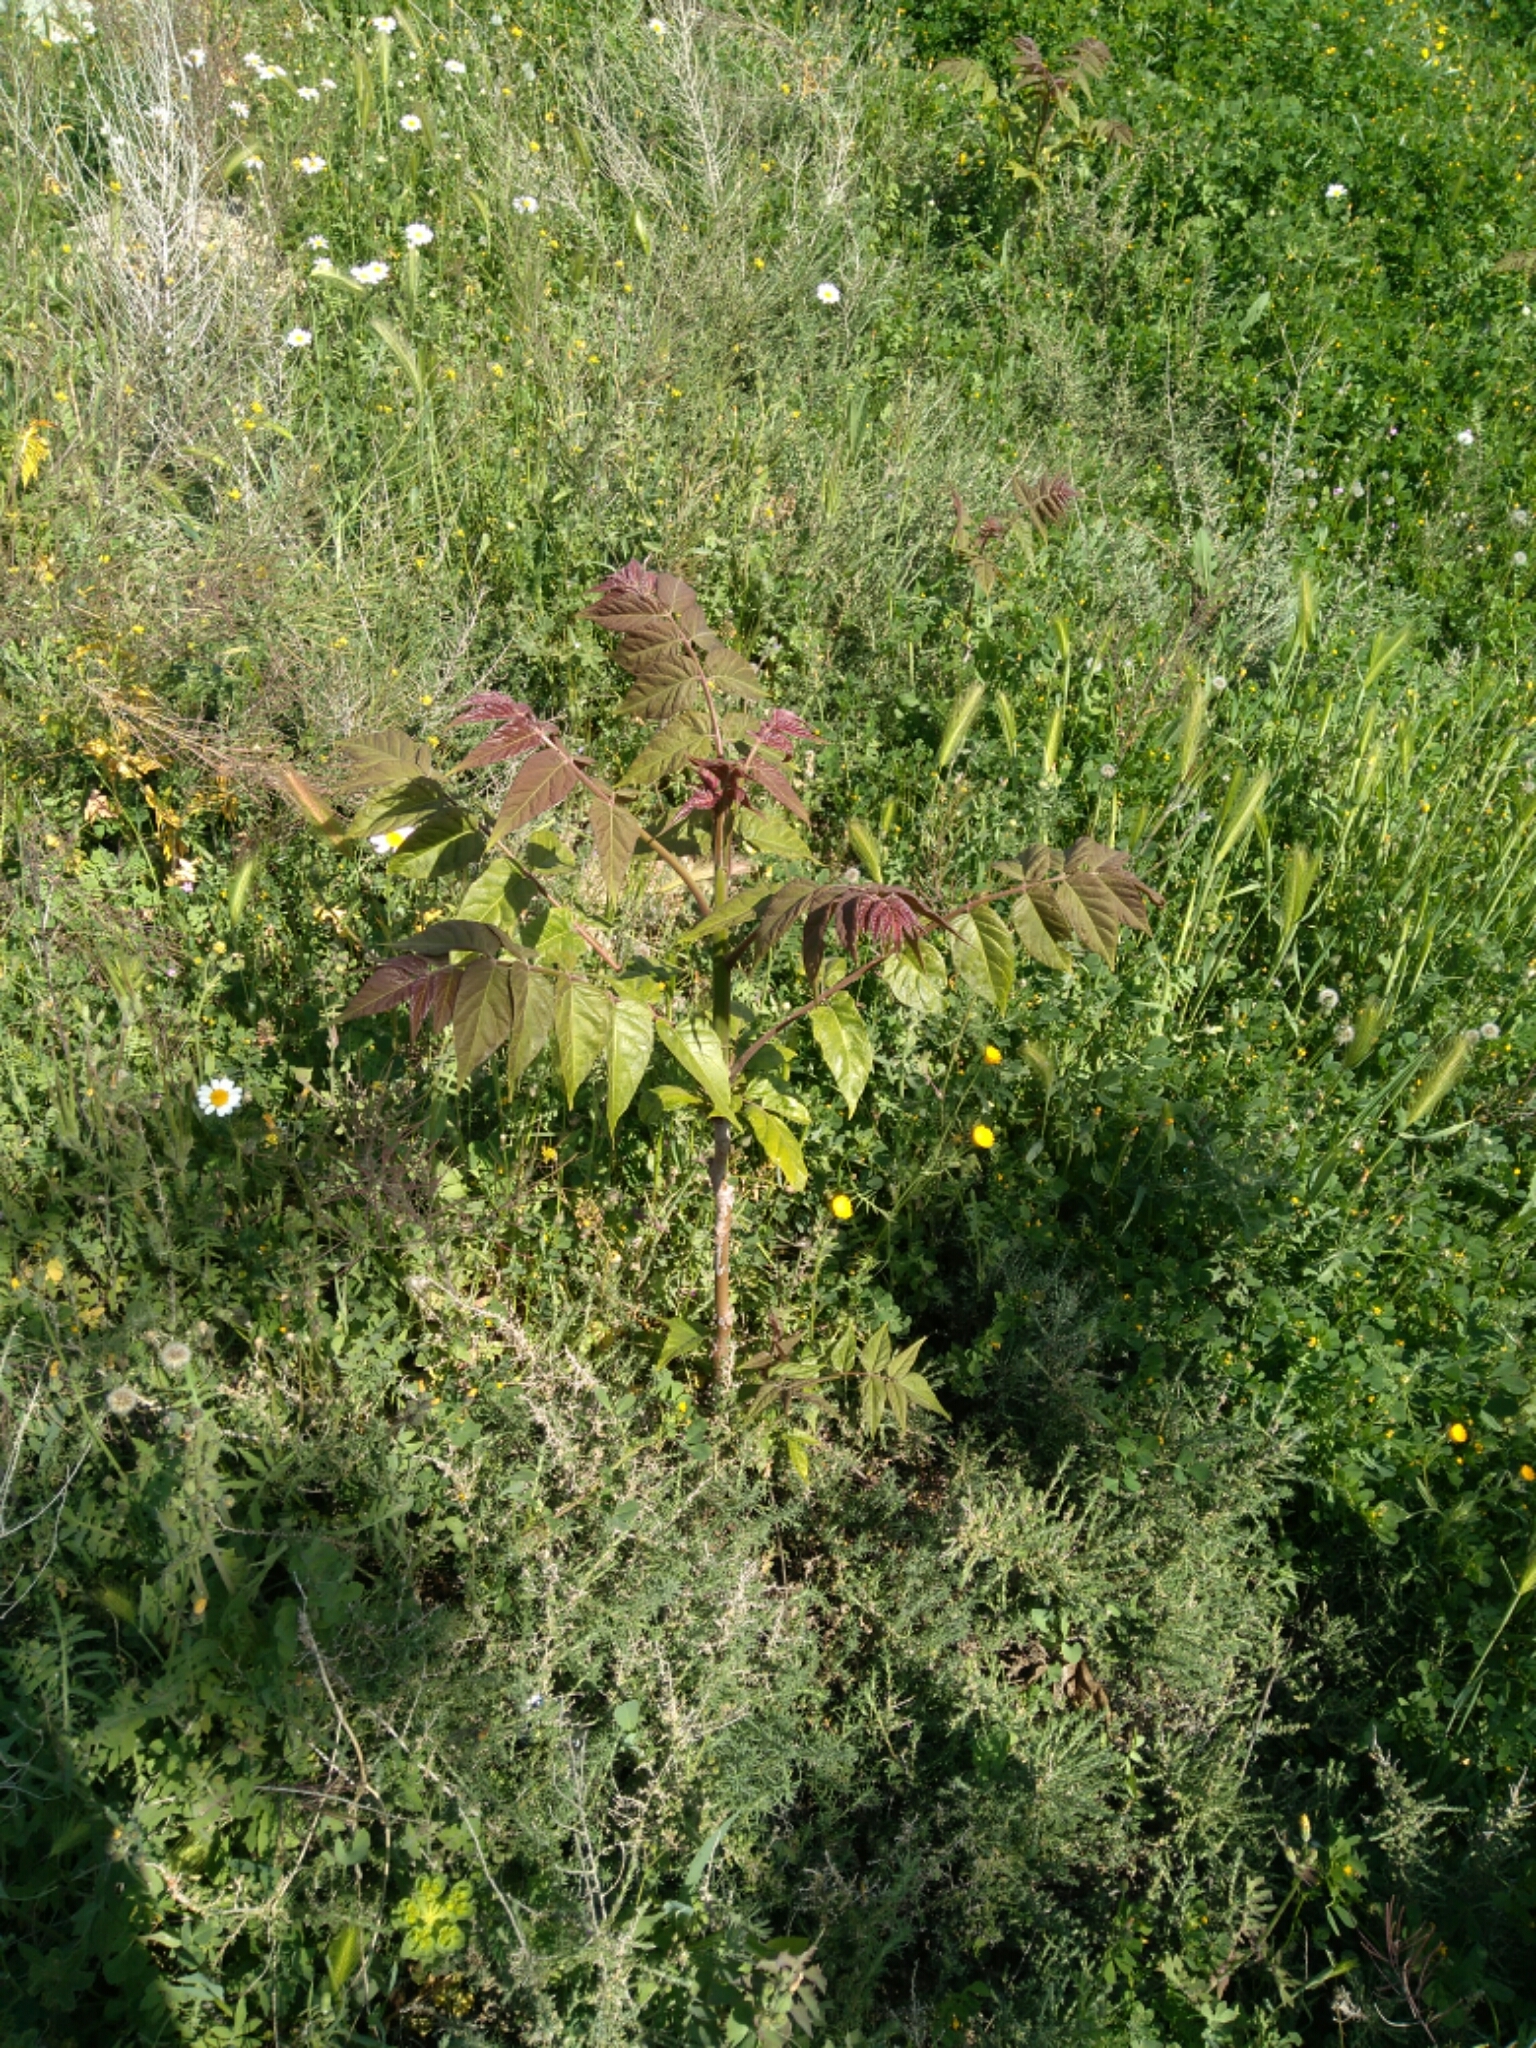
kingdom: Plantae
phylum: Tracheophyta
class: Magnoliopsida
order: Sapindales
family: Simaroubaceae
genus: Ailanthus
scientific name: Ailanthus altissima
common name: Tree-of-heaven
